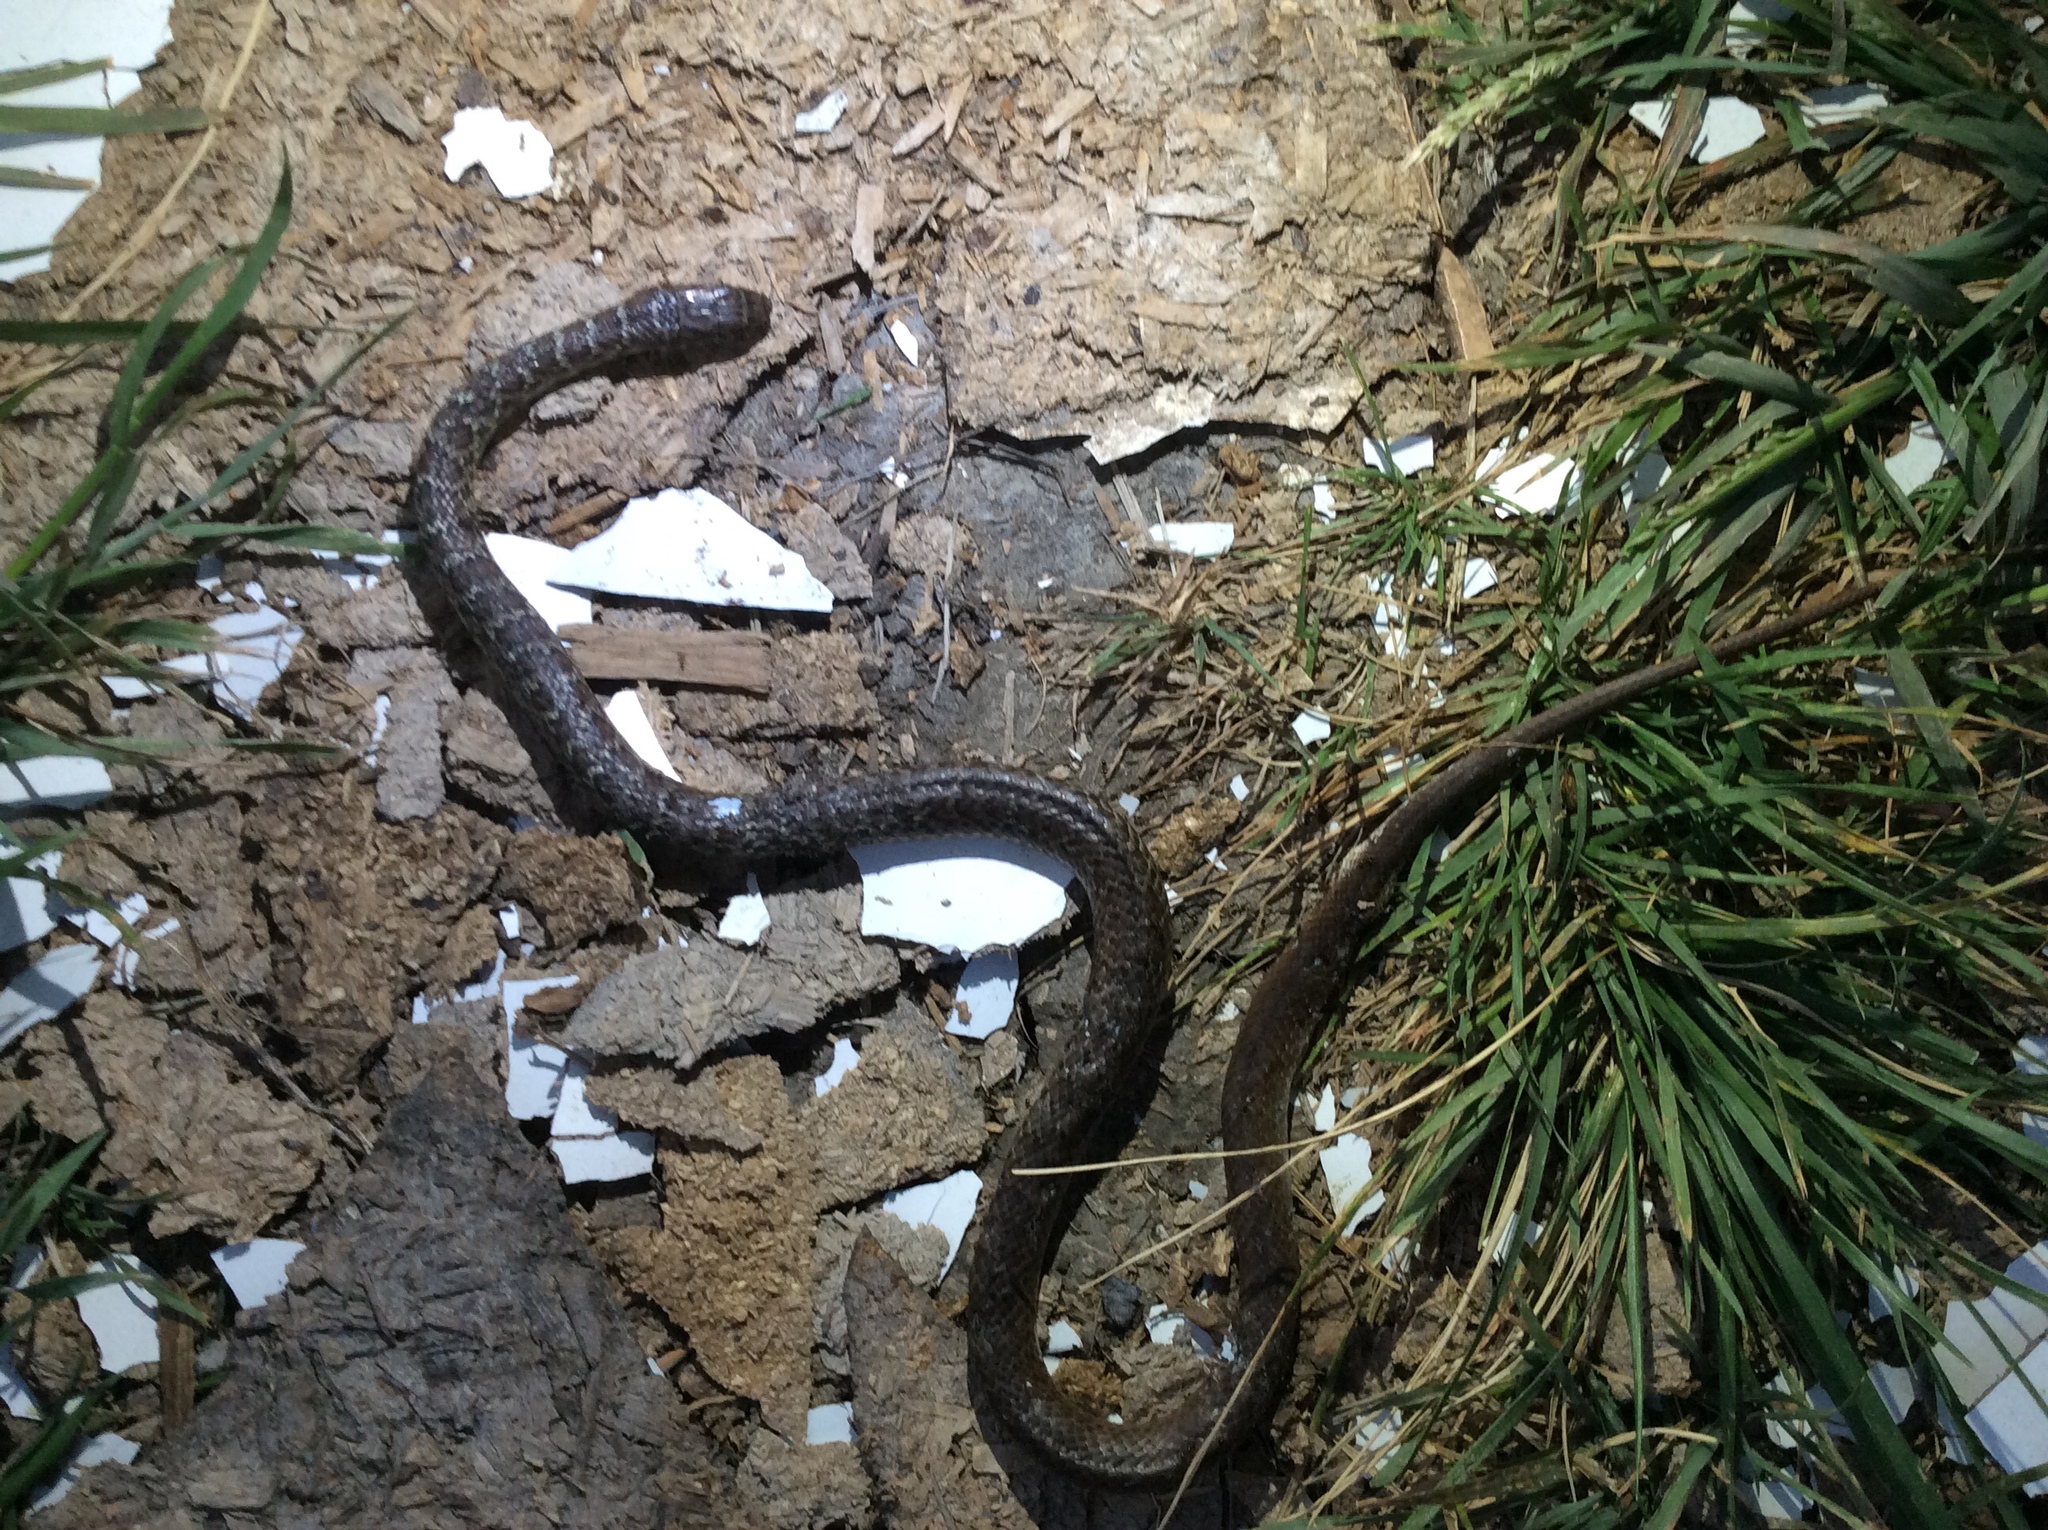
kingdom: Animalia
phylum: Chordata
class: Squamata
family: Colubridae
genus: Coluber
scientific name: Coluber constrictor
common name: Eastern racer
